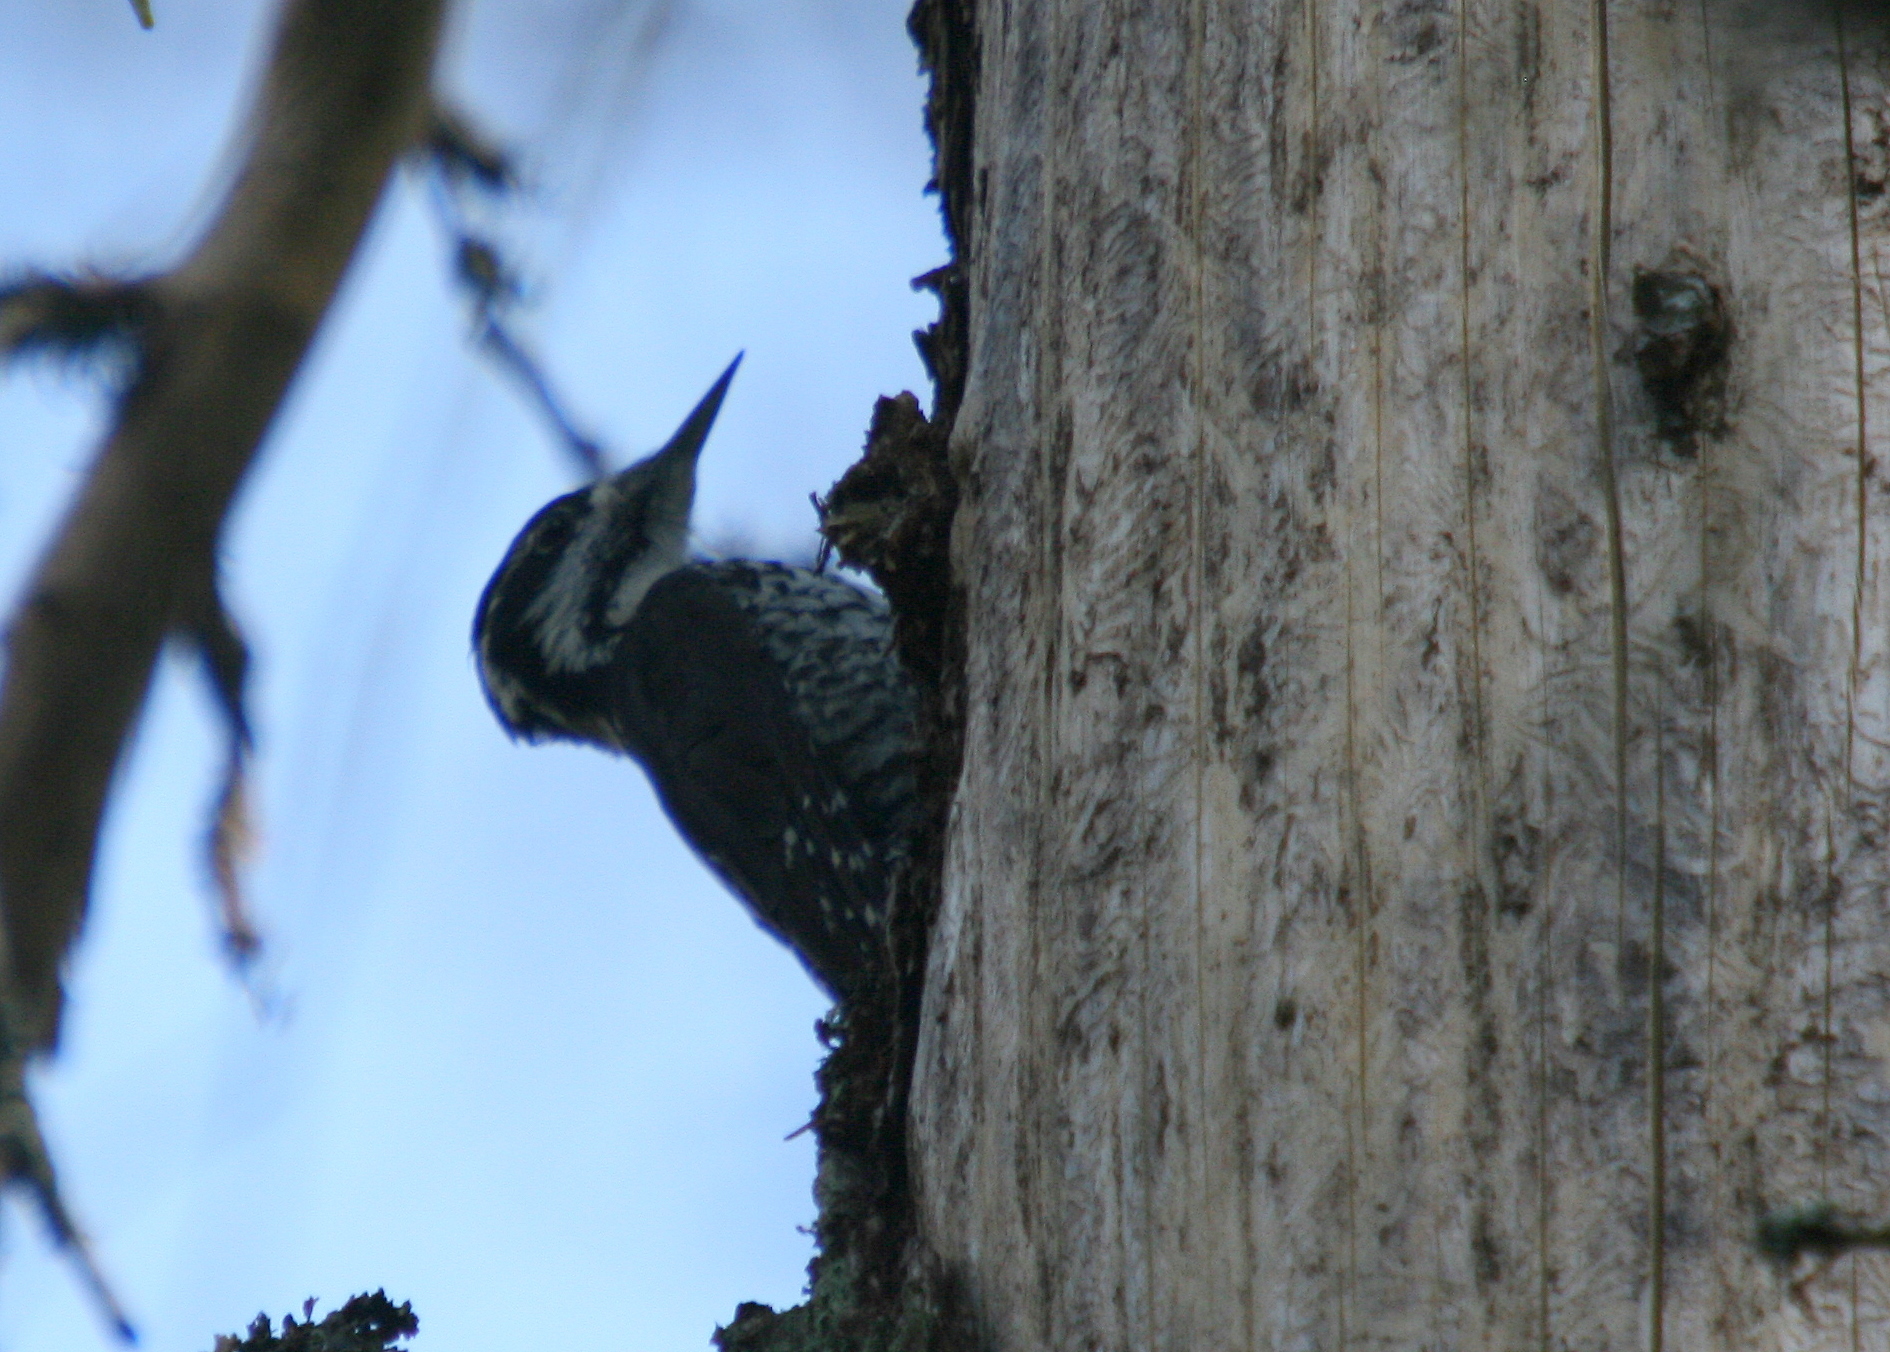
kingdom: Animalia
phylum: Chordata
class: Aves
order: Piciformes
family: Picidae
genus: Picoides
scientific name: Picoides tridactylus
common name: Eurasian three-toed woodpecker
